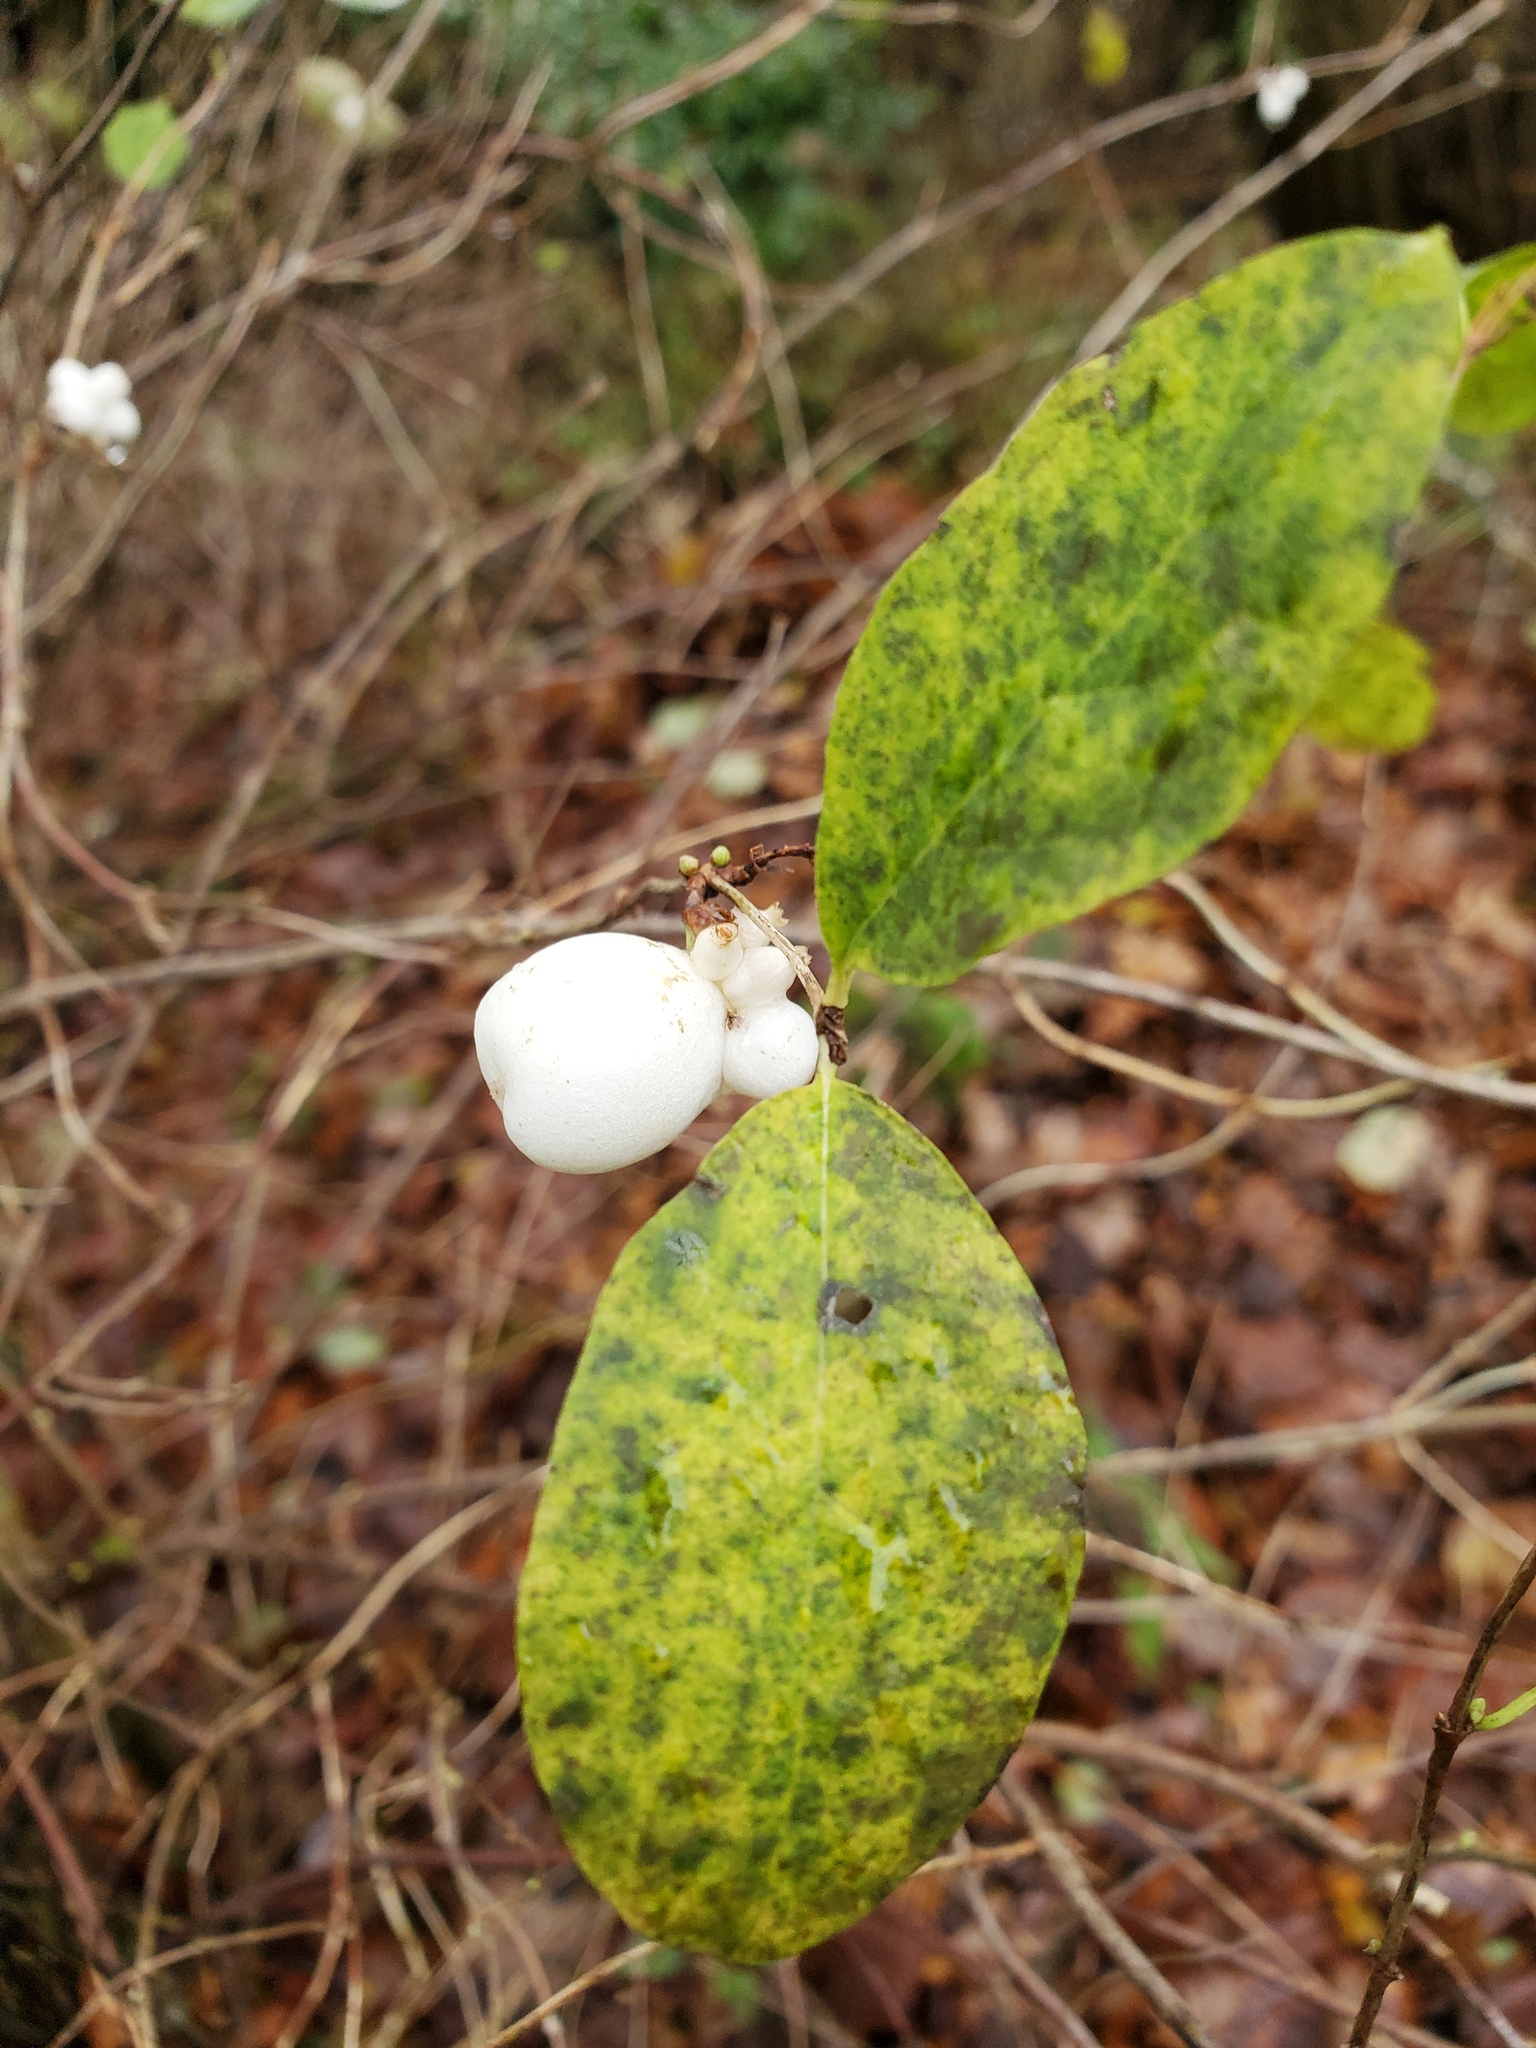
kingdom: Plantae
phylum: Tracheophyta
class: Magnoliopsida
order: Dipsacales
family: Caprifoliaceae
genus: Symphoricarpos
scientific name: Symphoricarpos albus
